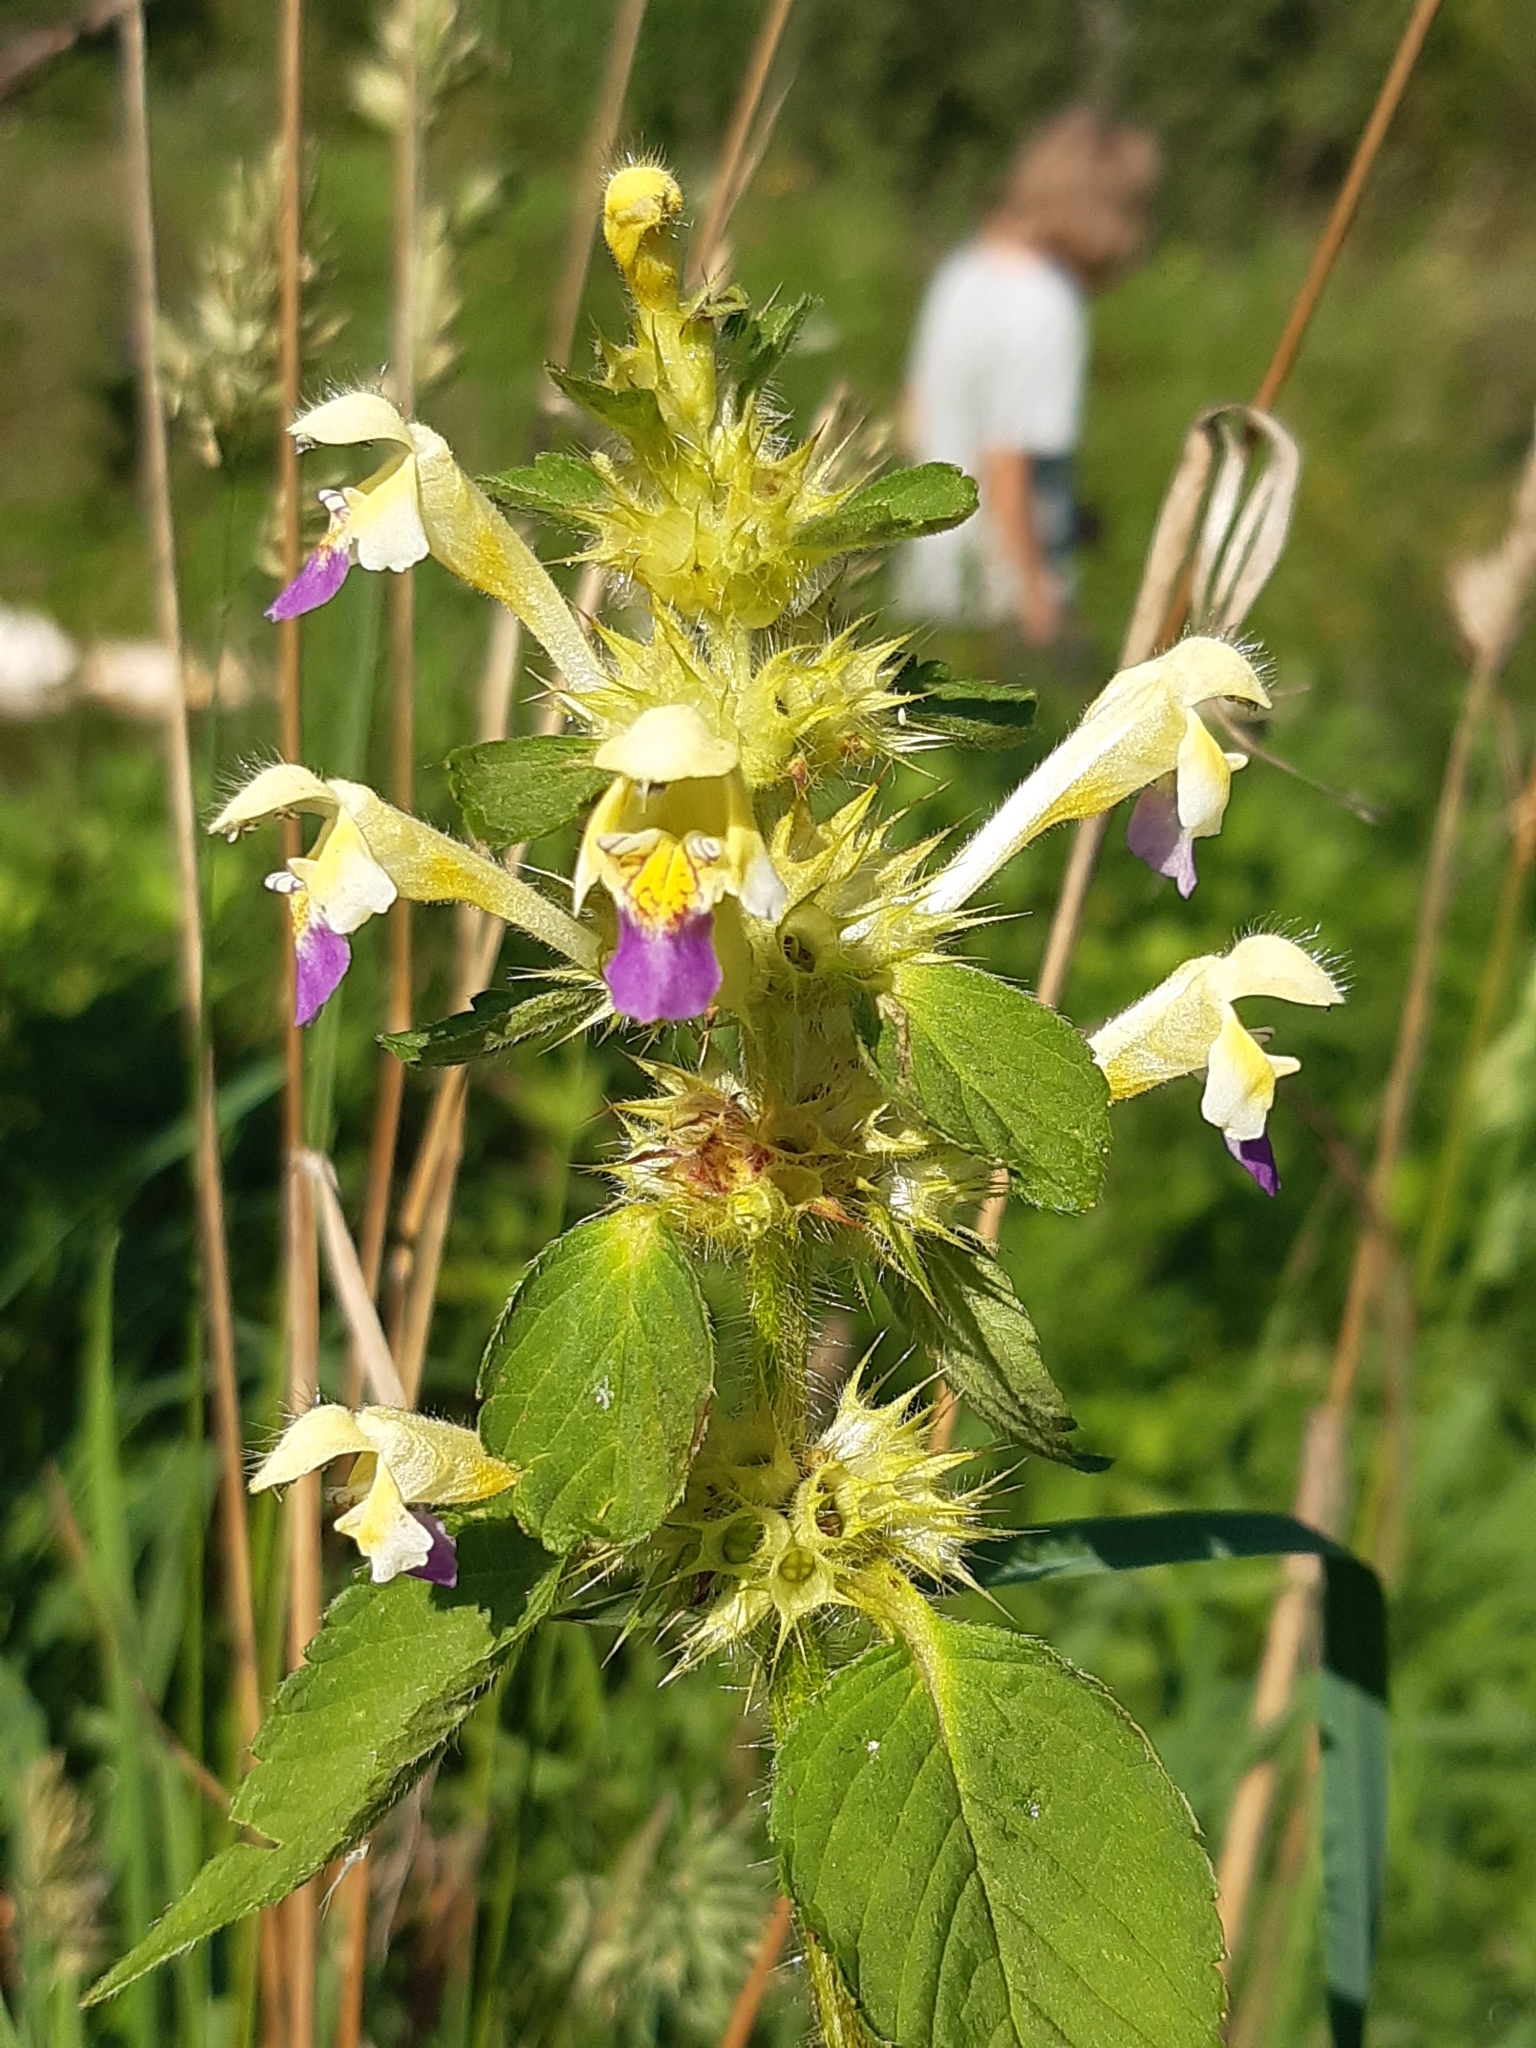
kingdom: Plantae
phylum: Tracheophyta
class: Magnoliopsida
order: Lamiales
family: Lamiaceae
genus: Galeopsis
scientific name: Galeopsis speciosa
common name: Large-flowered hemp-nettle
